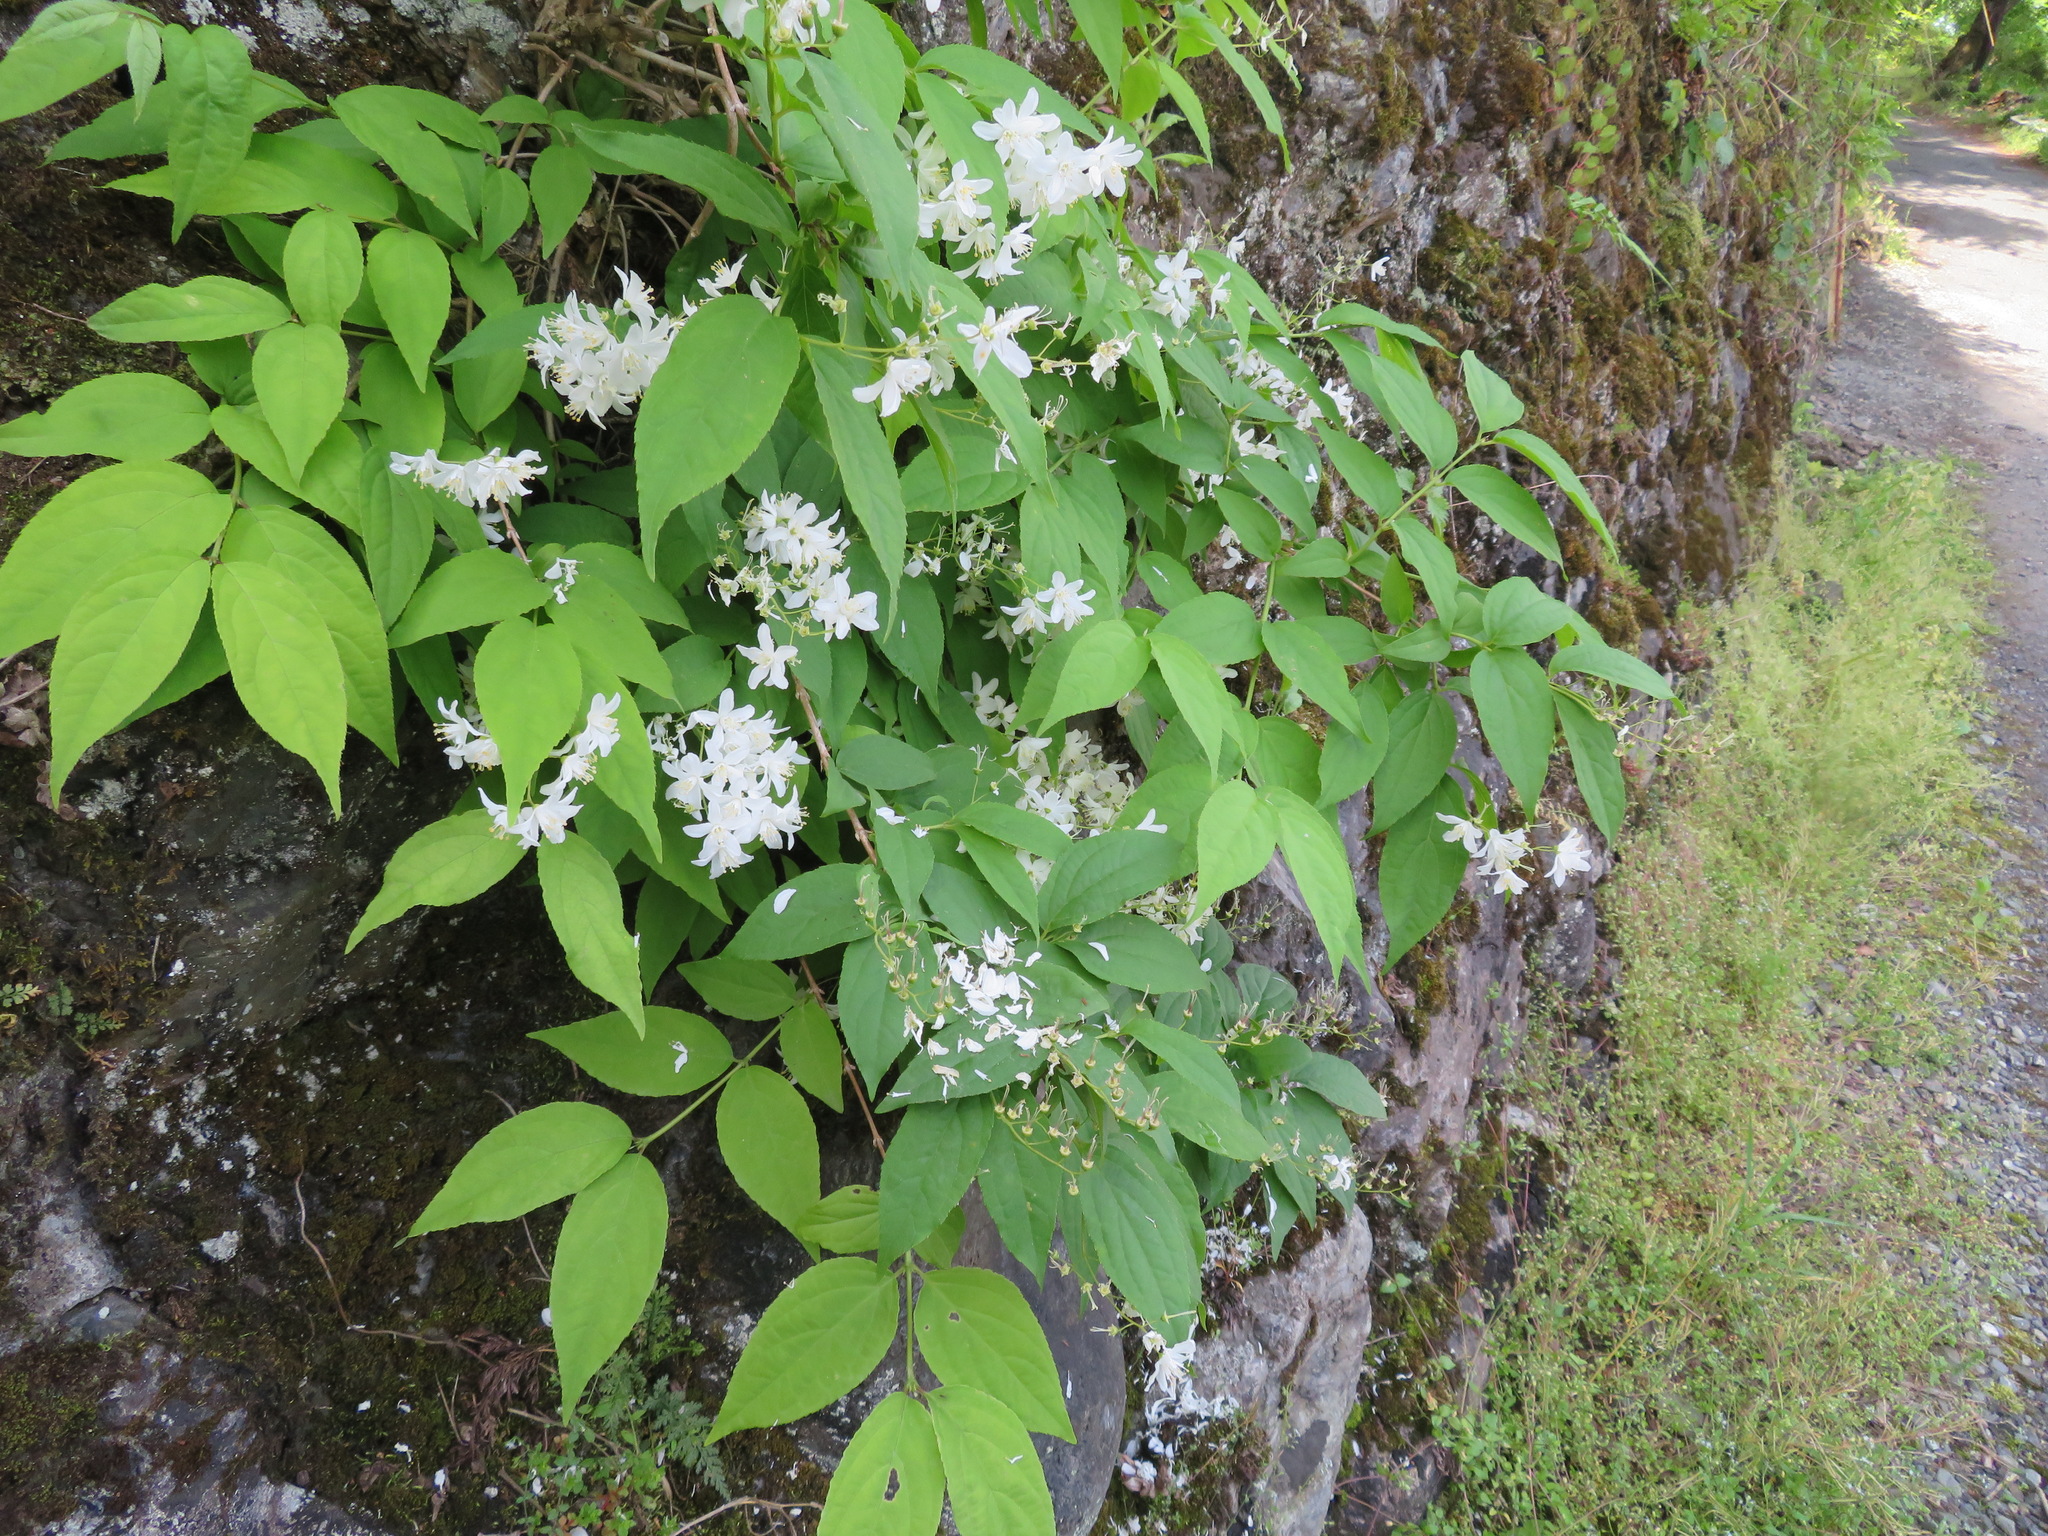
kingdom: Plantae
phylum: Tracheophyta
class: Magnoliopsida
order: Cornales
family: Hydrangeaceae
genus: Deutzia
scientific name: Deutzia gracilis
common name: Slender pride of rochester
